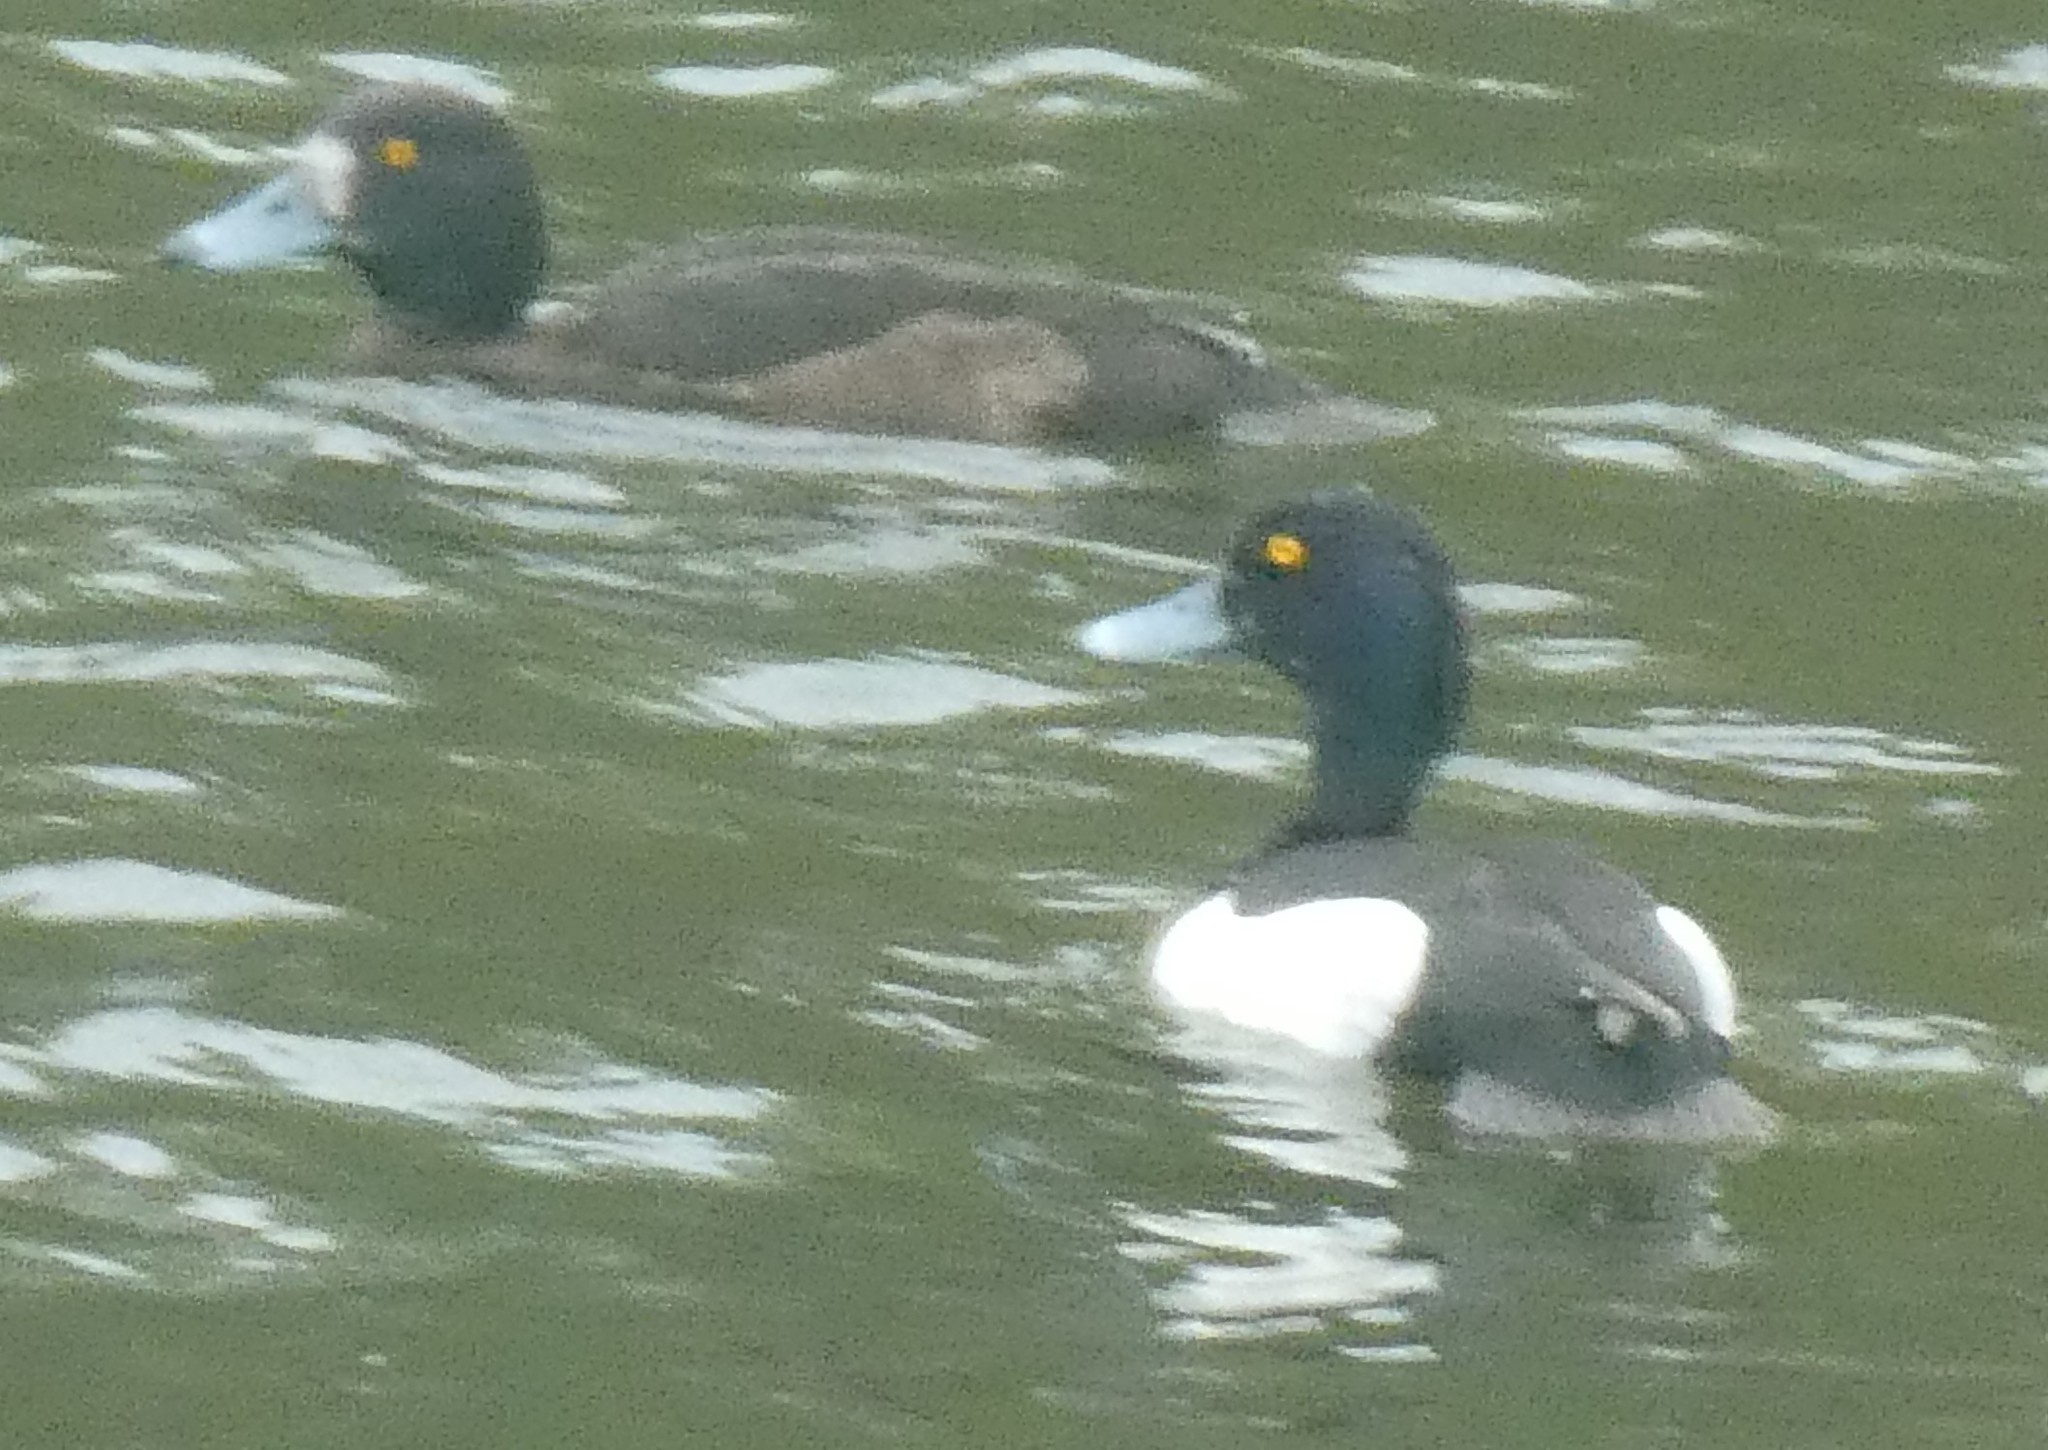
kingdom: Animalia
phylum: Chordata
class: Aves
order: Anseriformes
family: Anatidae
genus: Aythya
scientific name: Aythya fuligula
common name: Tufted duck
